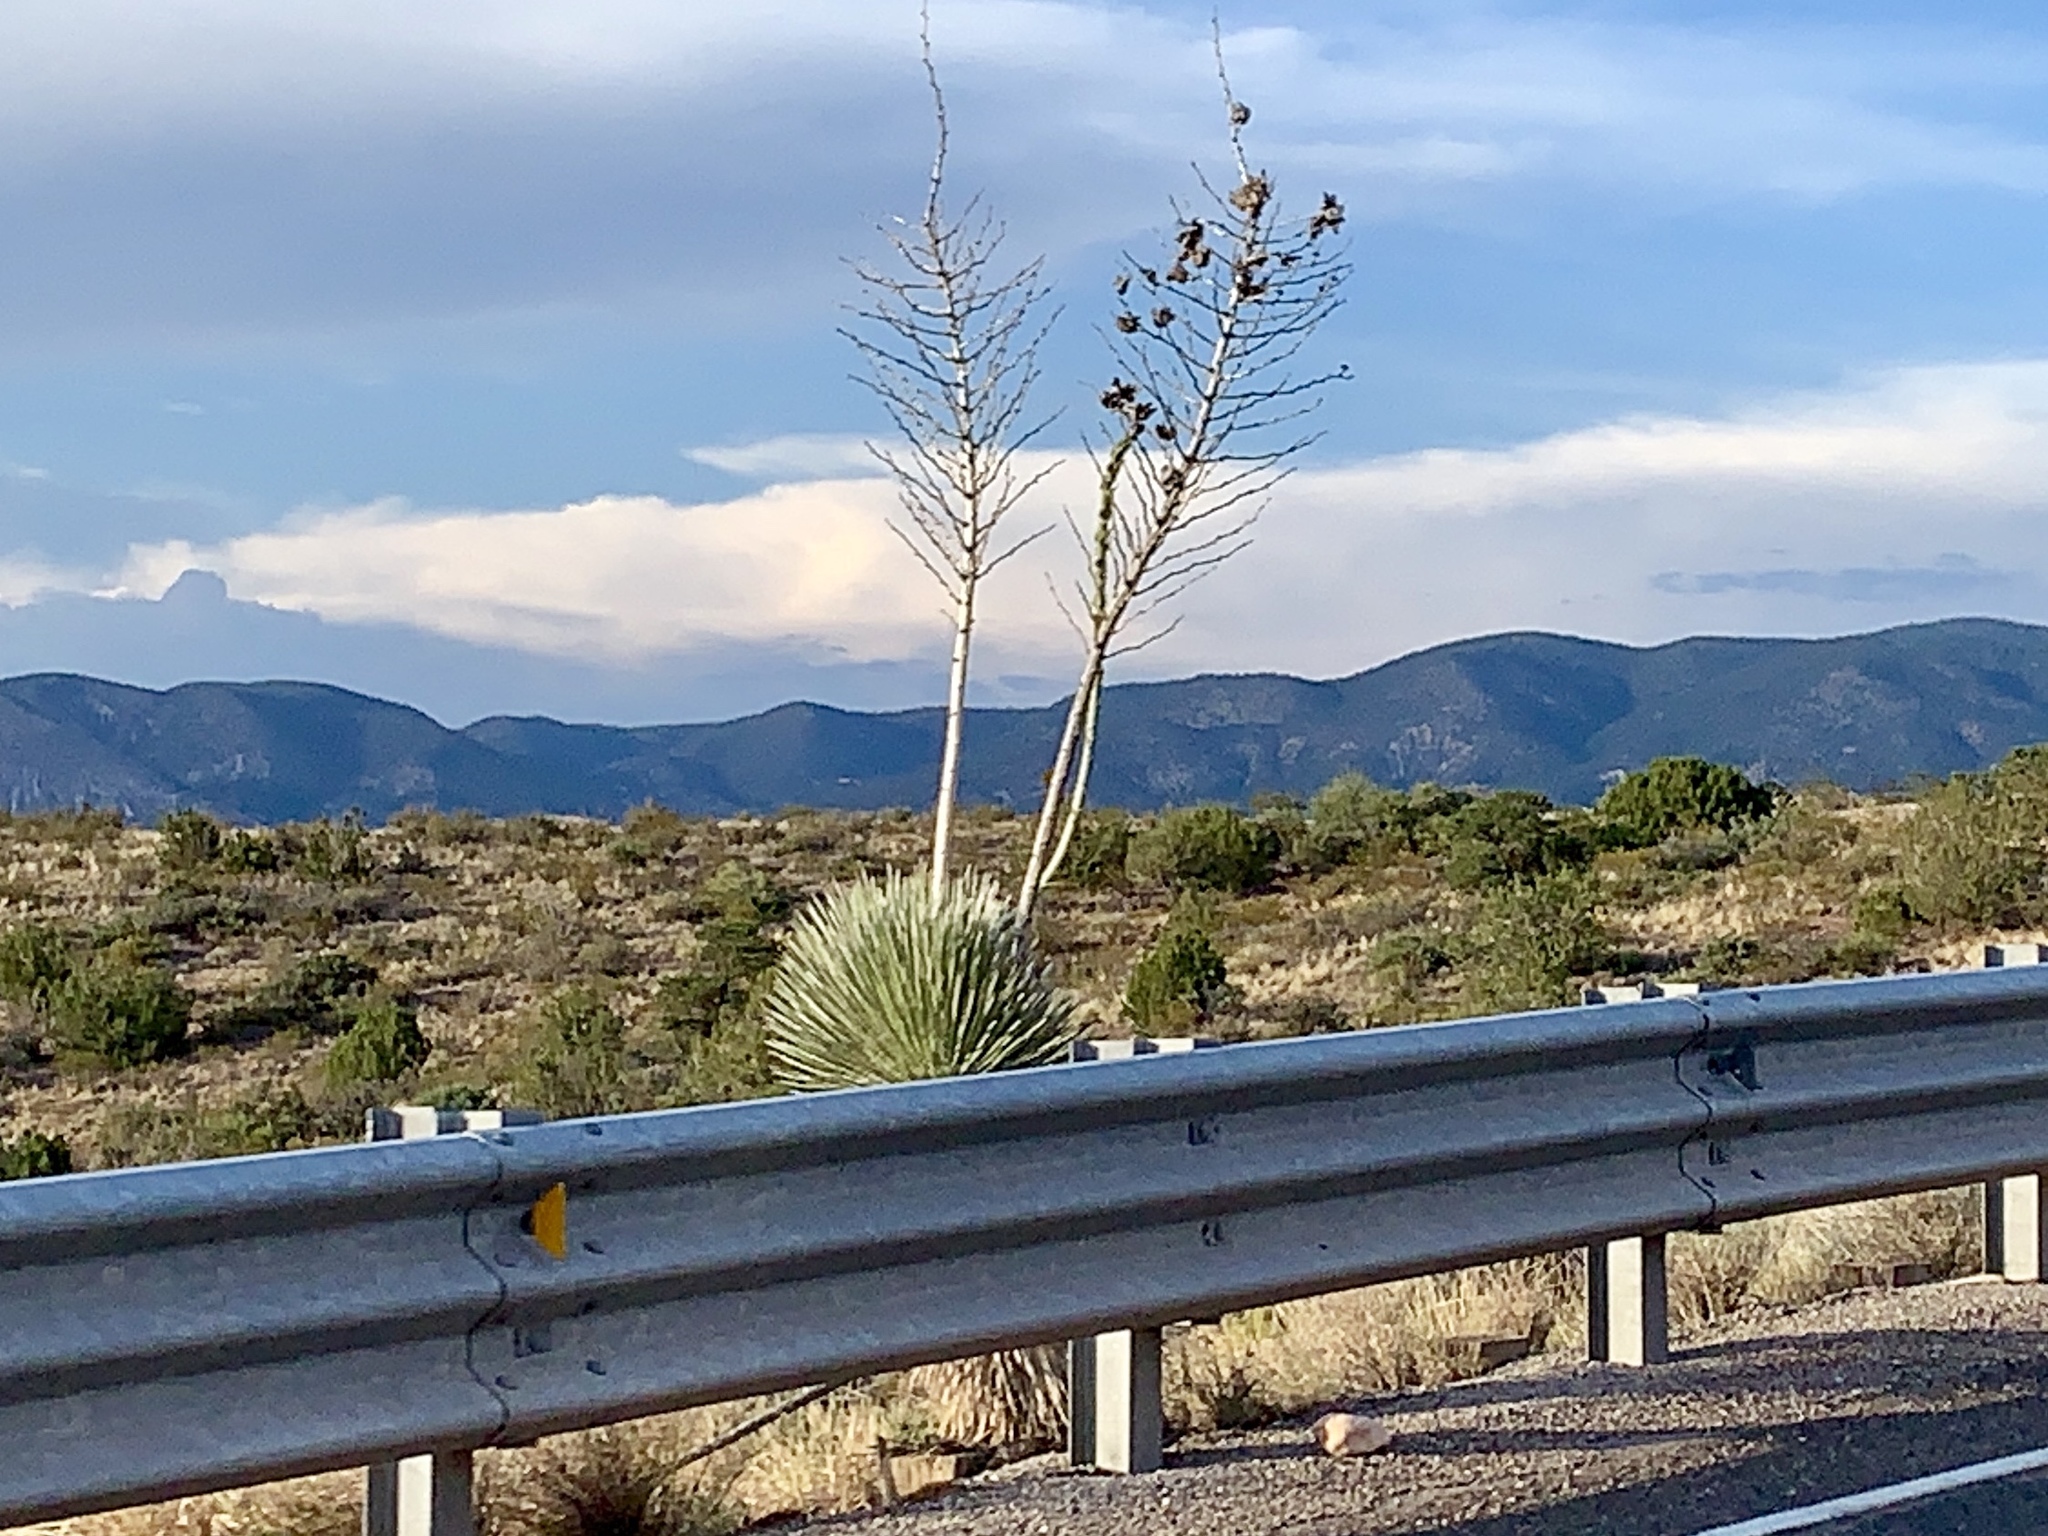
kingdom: Plantae
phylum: Tracheophyta
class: Liliopsida
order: Asparagales
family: Asparagaceae
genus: Yucca
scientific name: Yucca elata
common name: Palmella
